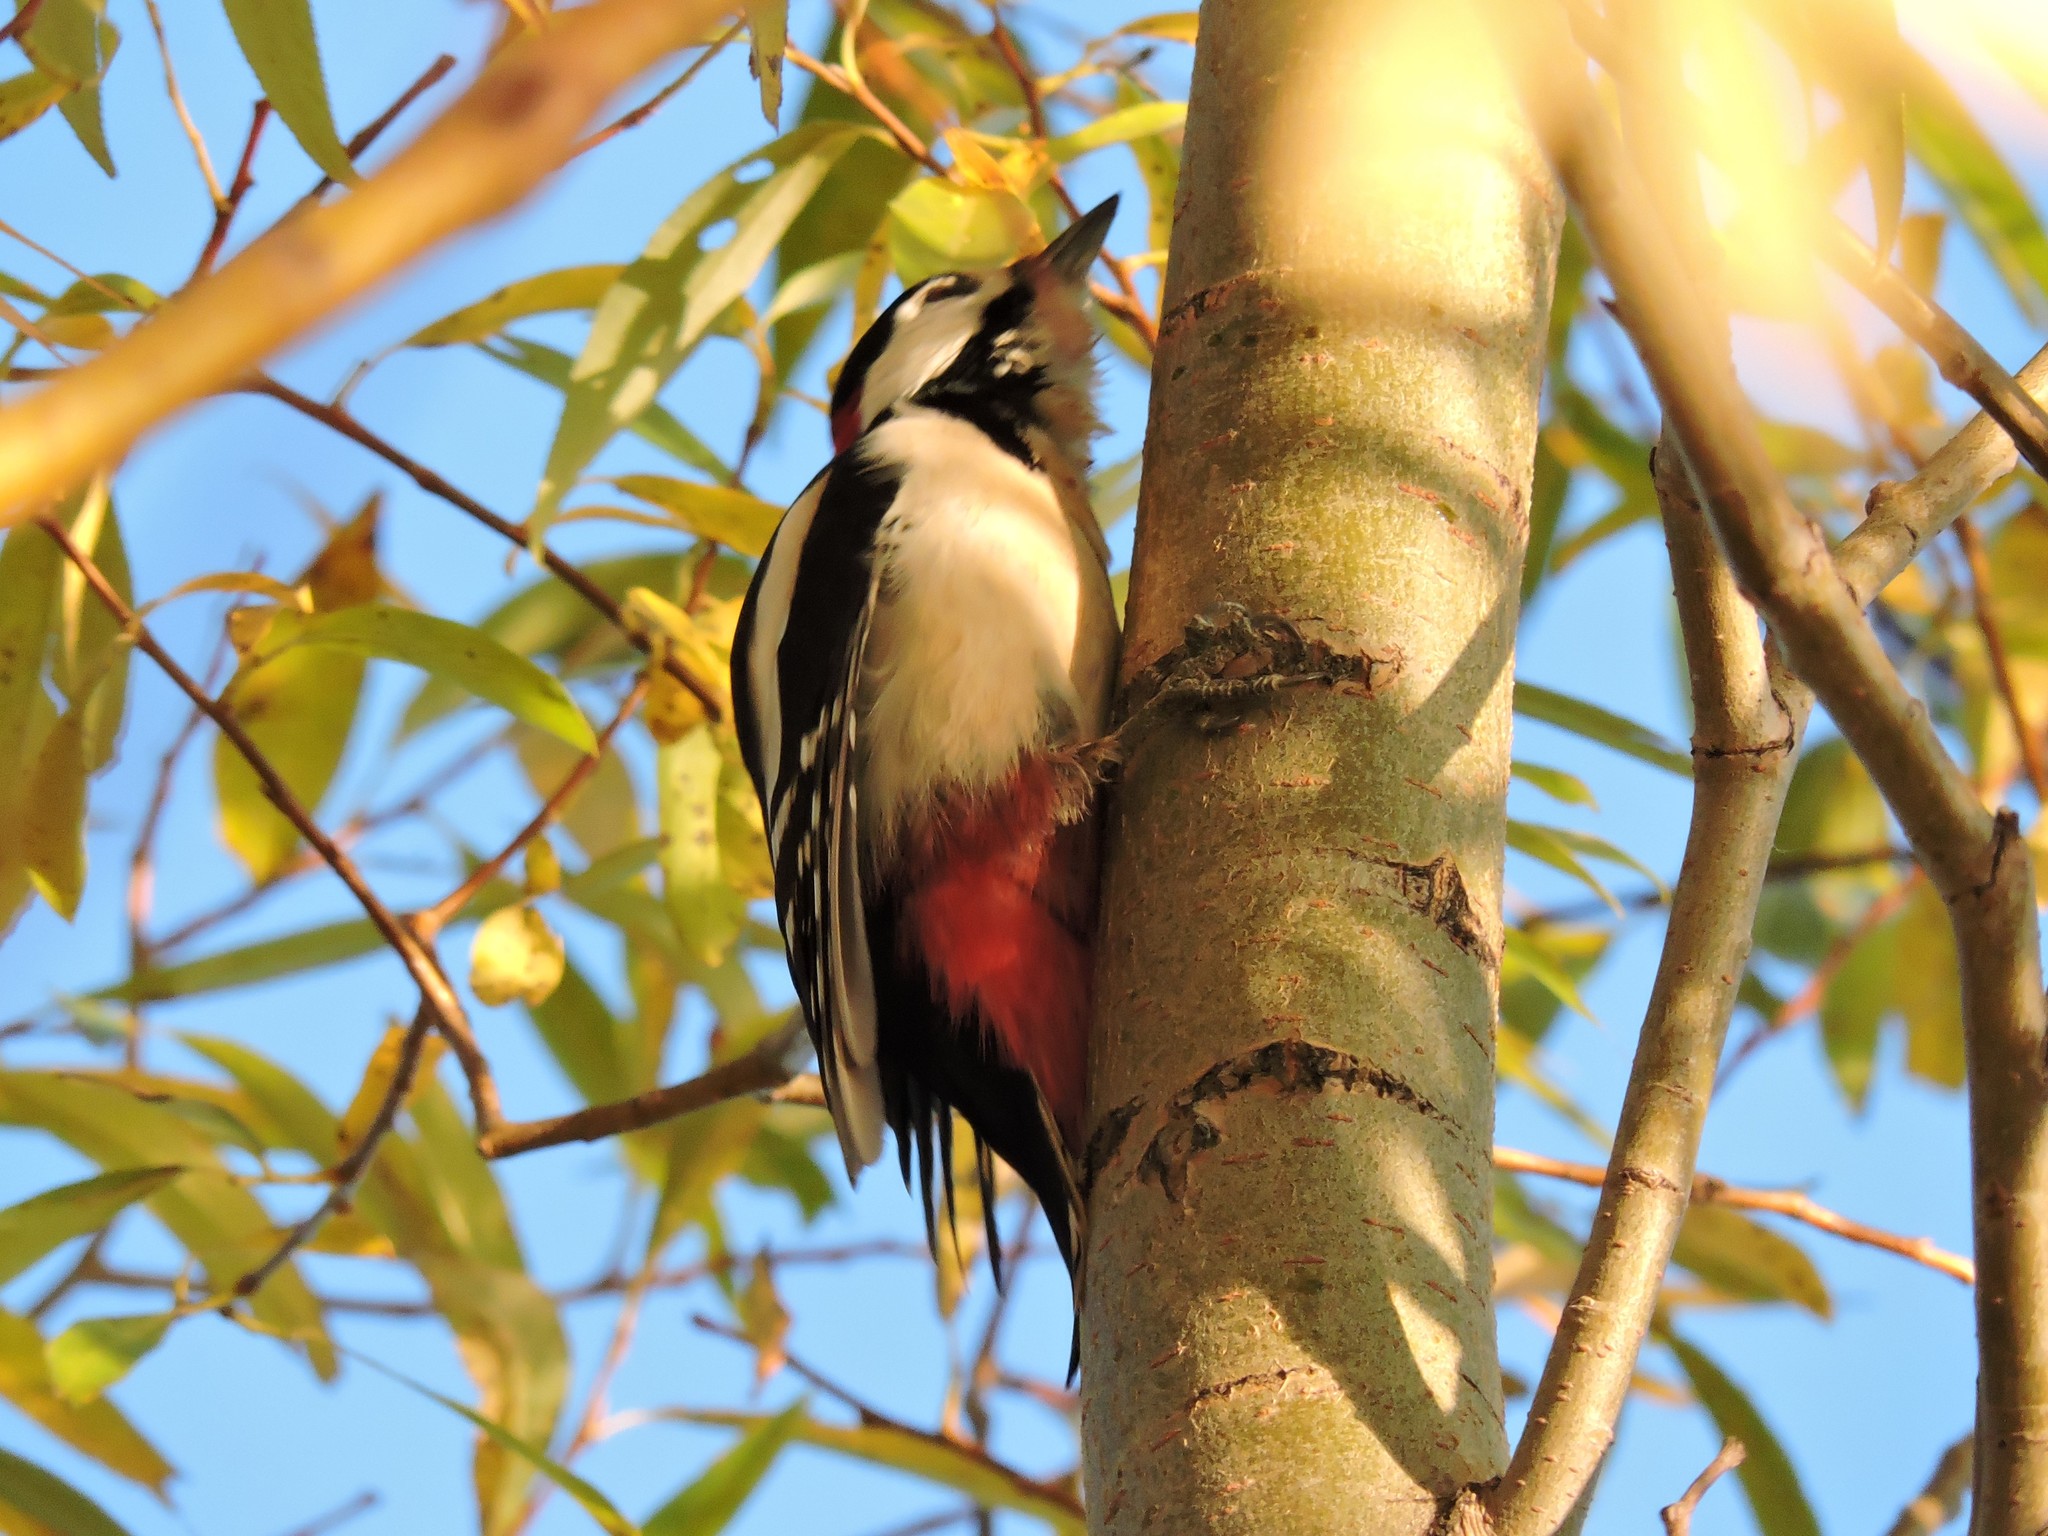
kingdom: Animalia
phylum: Chordata
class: Aves
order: Piciformes
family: Picidae
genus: Dendrocopos
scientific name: Dendrocopos major
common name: Great spotted woodpecker
